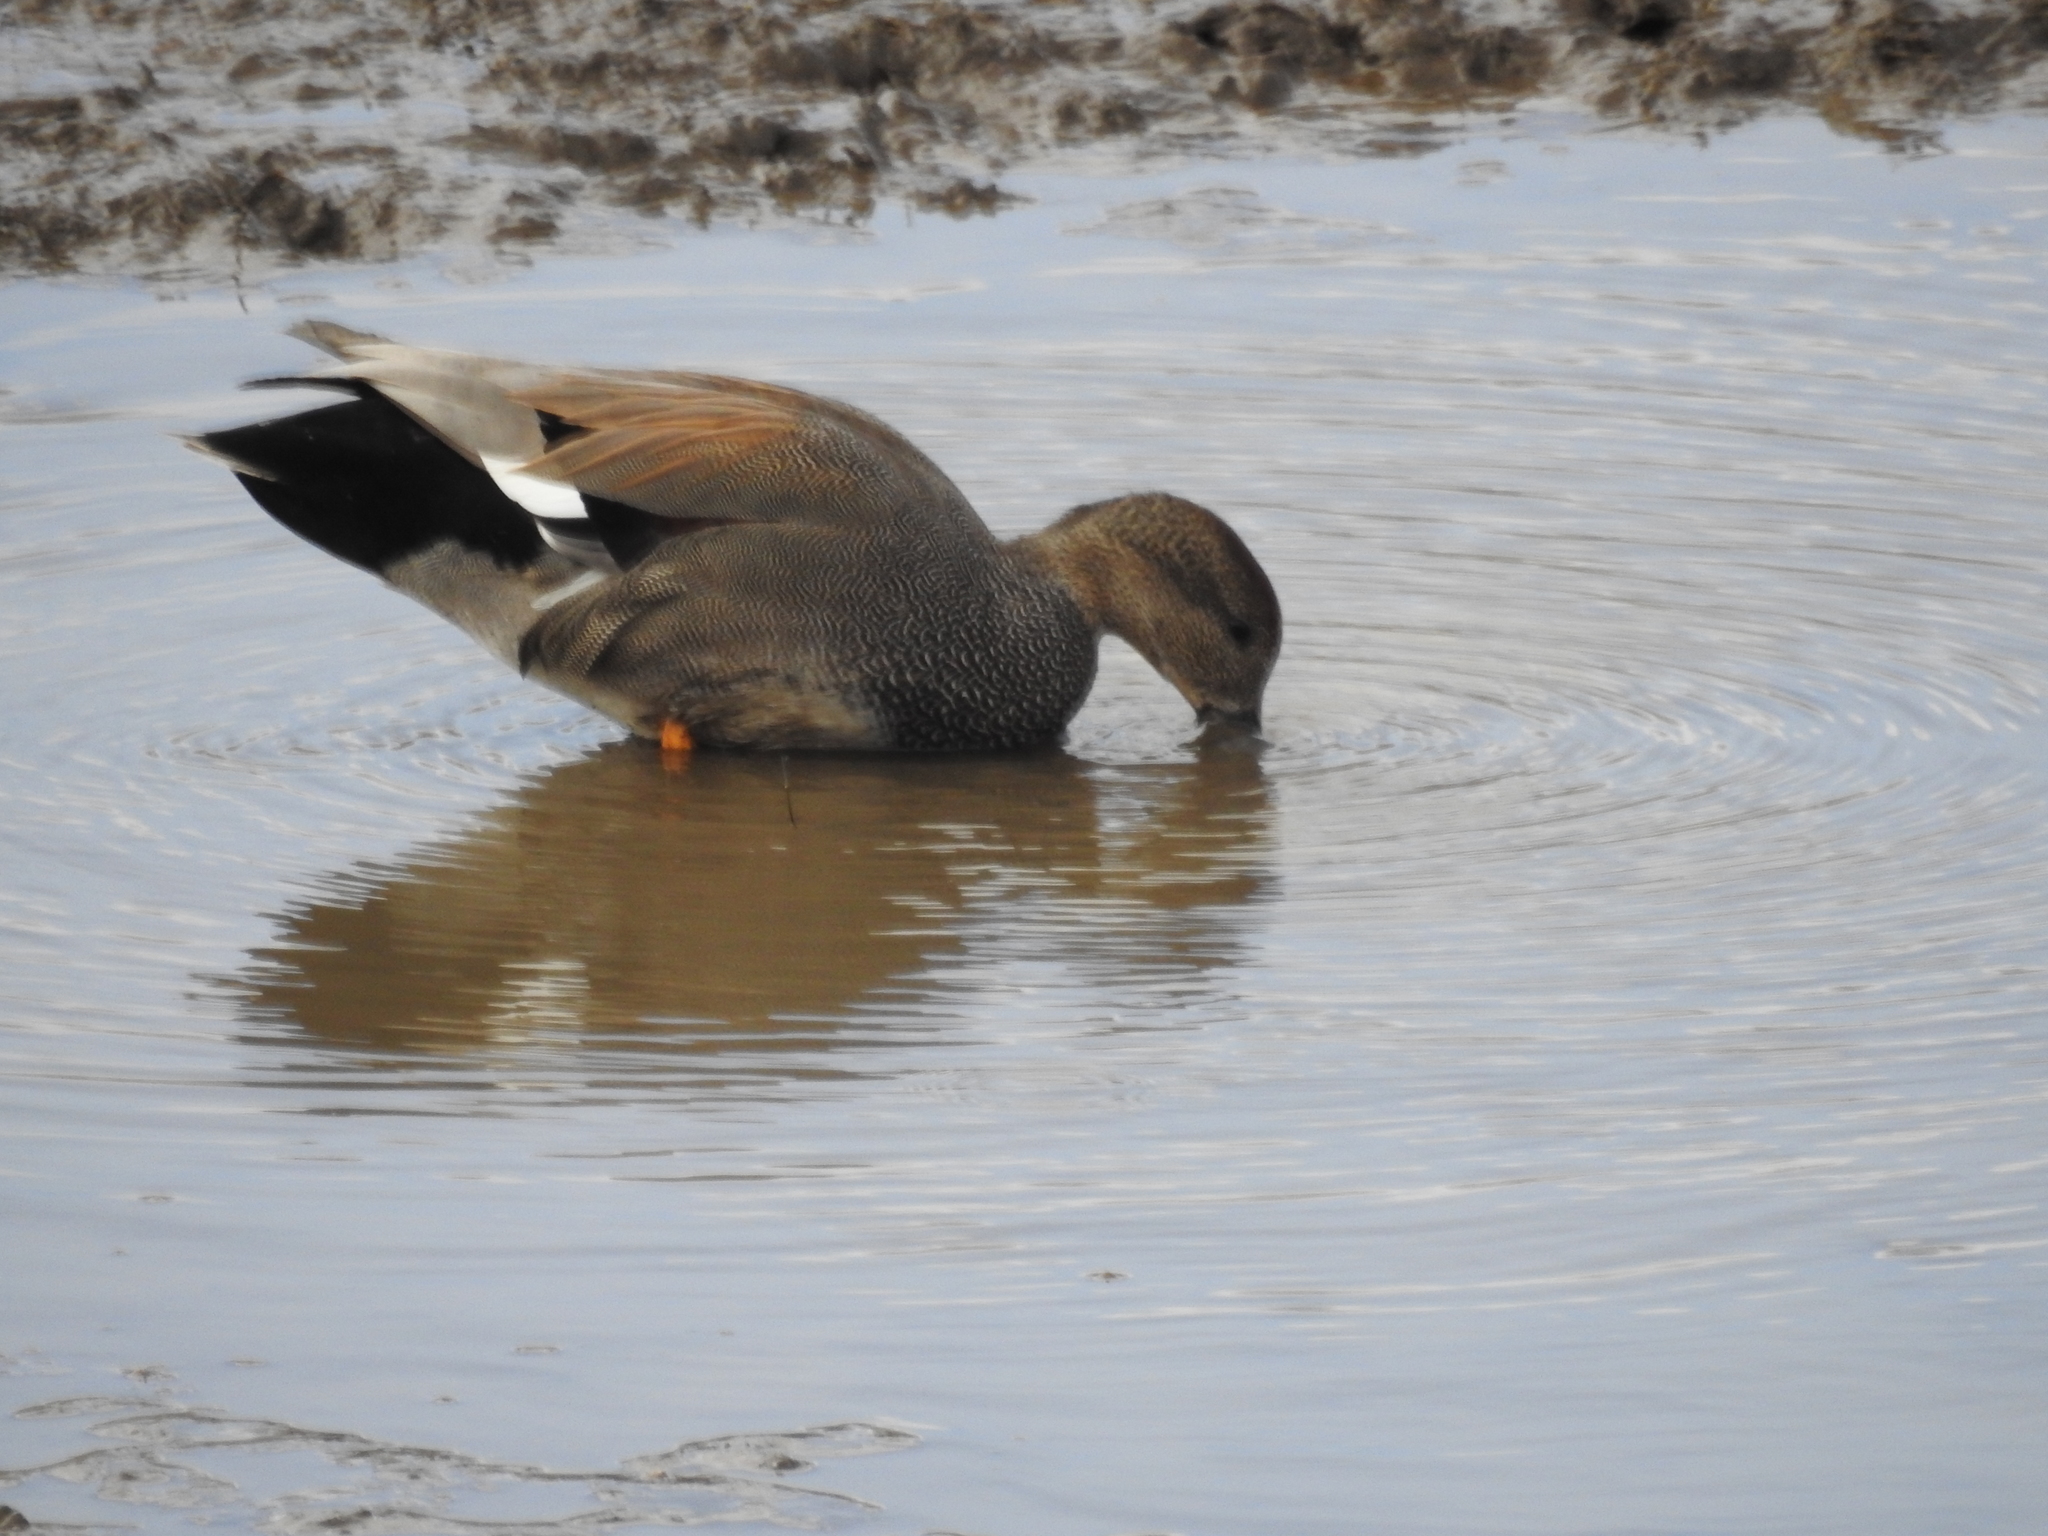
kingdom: Animalia
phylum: Chordata
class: Aves
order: Anseriformes
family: Anatidae
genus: Mareca
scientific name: Mareca strepera
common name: Gadwall
